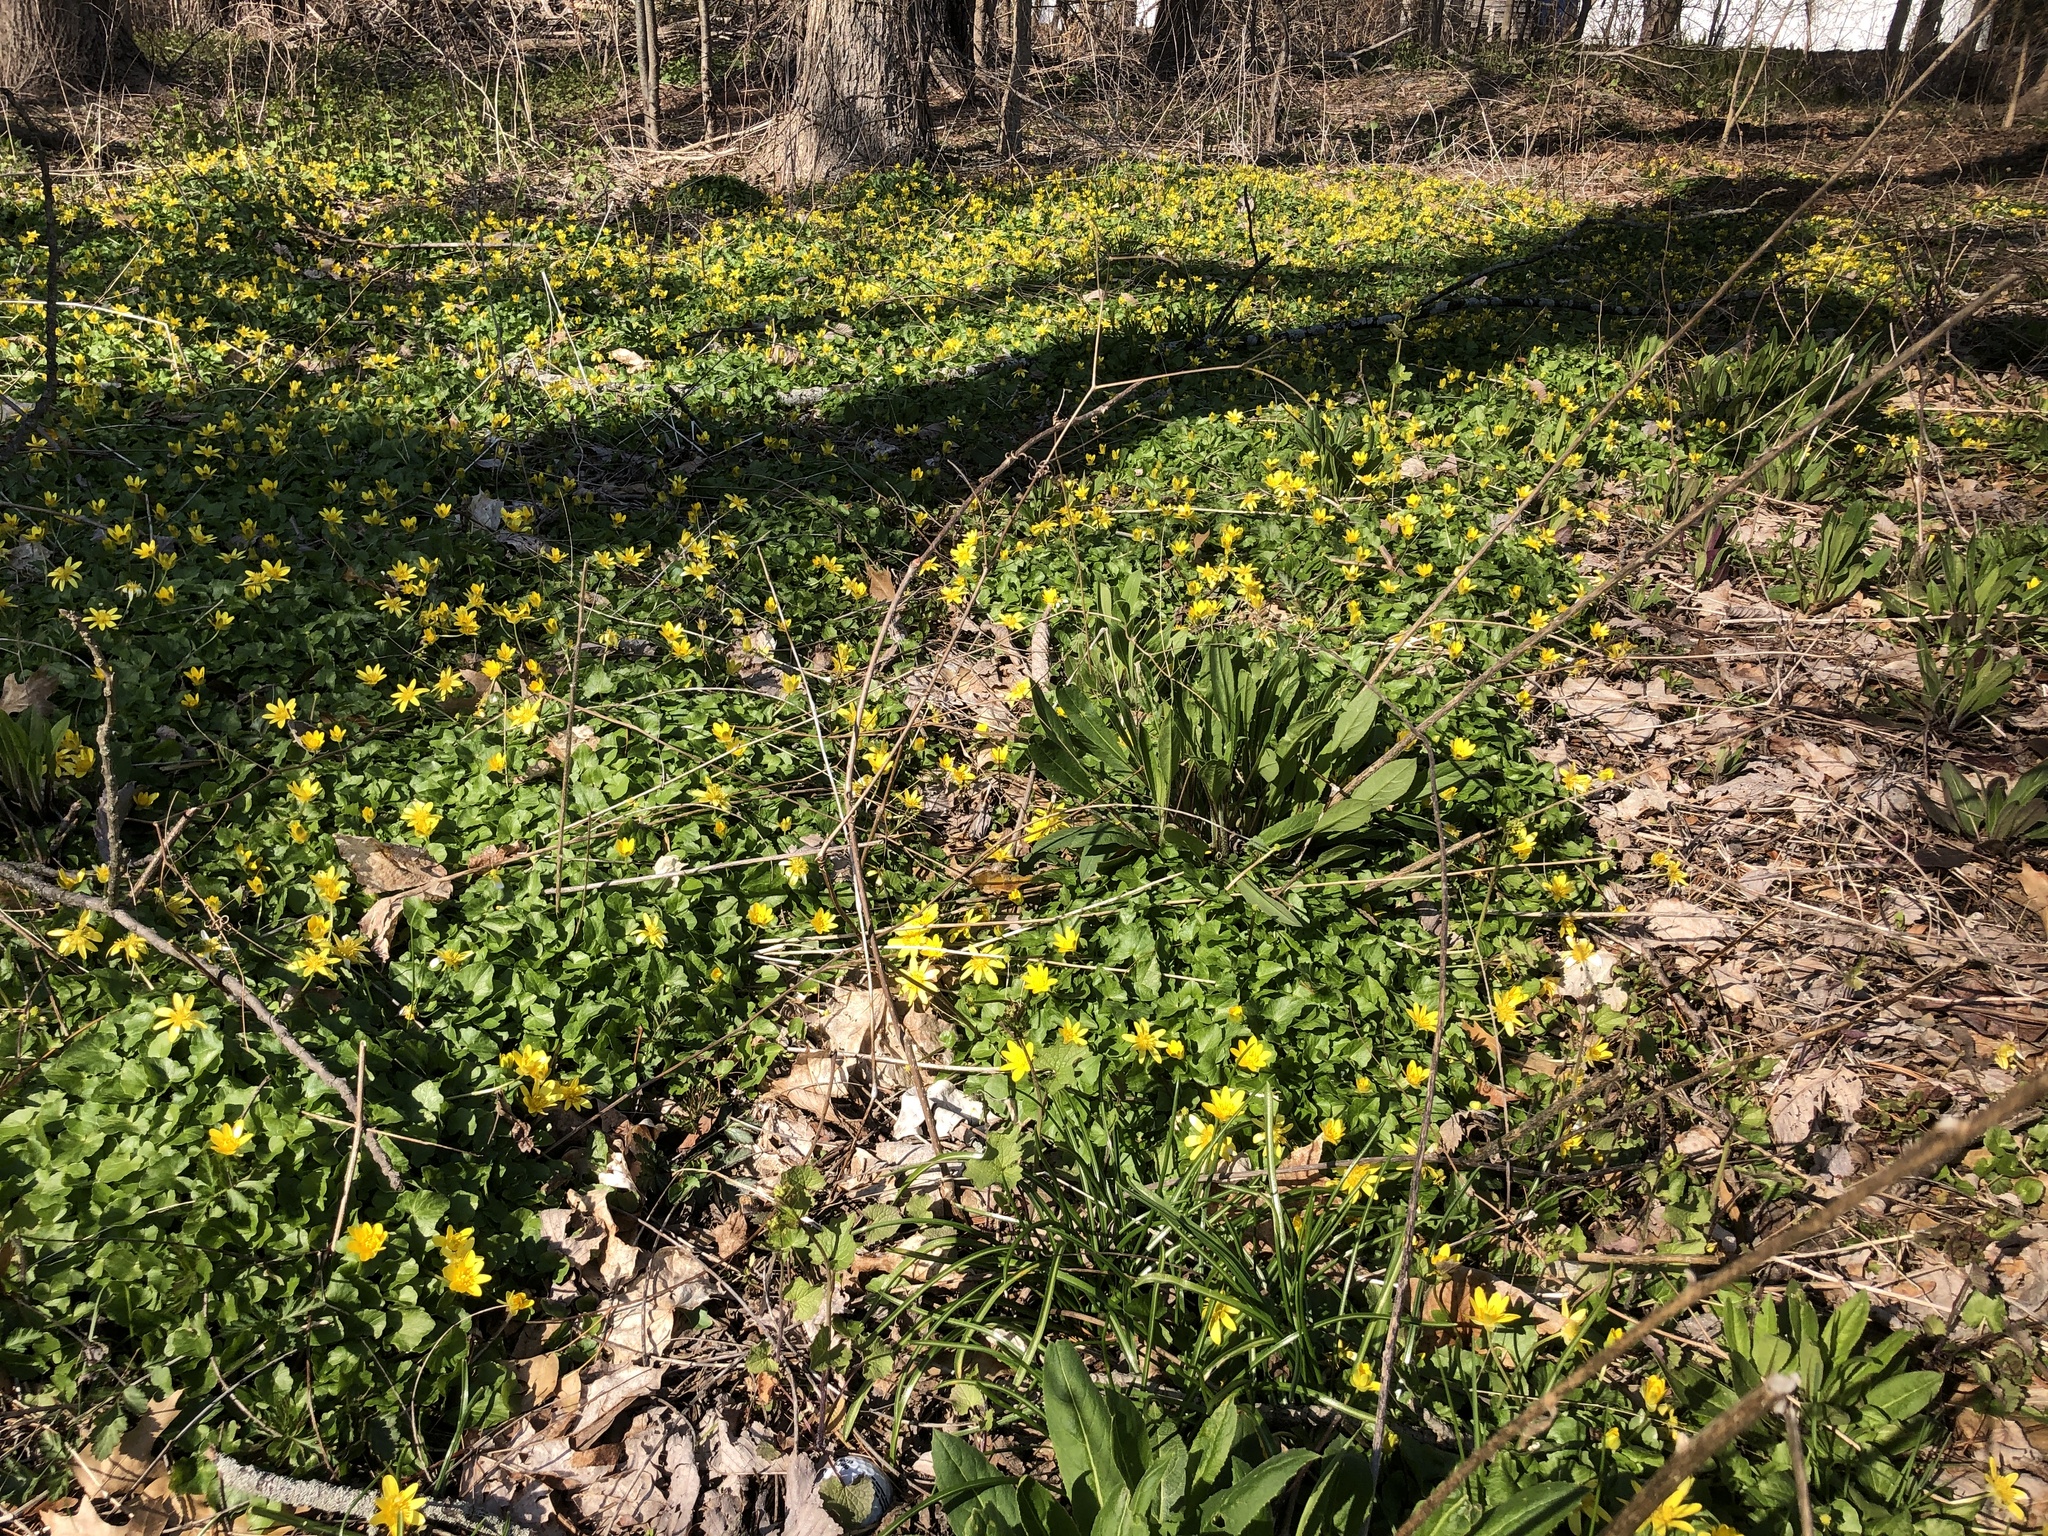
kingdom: Plantae
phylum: Tracheophyta
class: Magnoliopsida
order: Ranunculales
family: Ranunculaceae
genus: Ficaria
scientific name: Ficaria verna
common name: Lesser celandine
